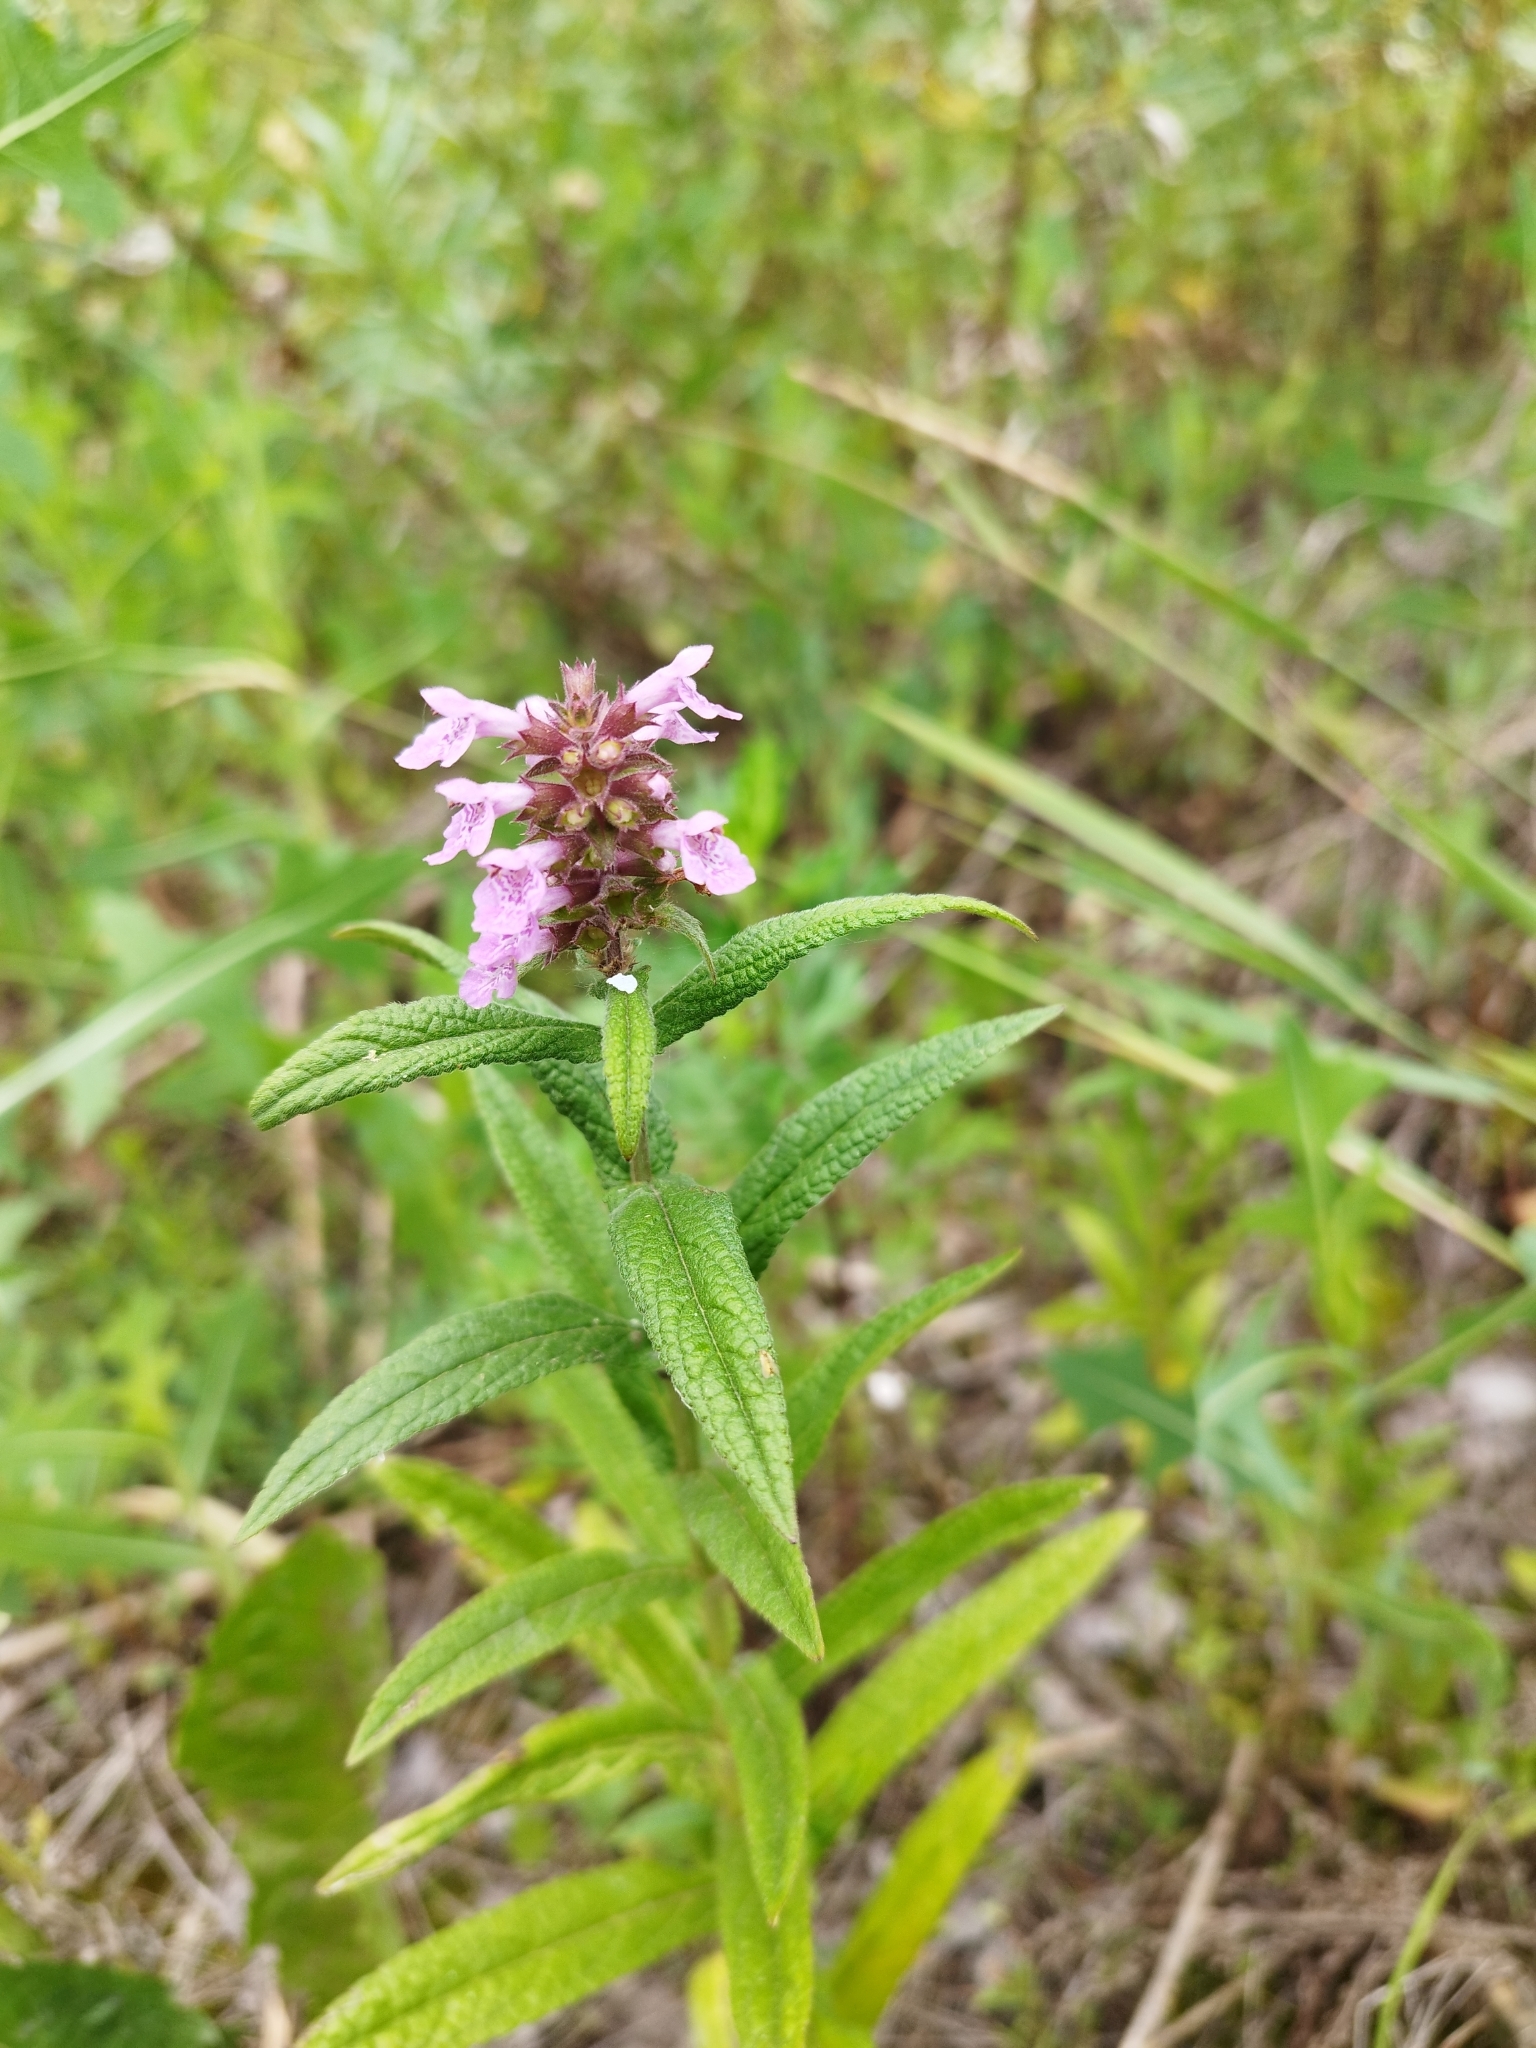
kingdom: Plantae
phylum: Tracheophyta
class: Magnoliopsida
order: Lamiales
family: Lamiaceae
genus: Stachys
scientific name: Stachys palustris
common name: Marsh woundwort
